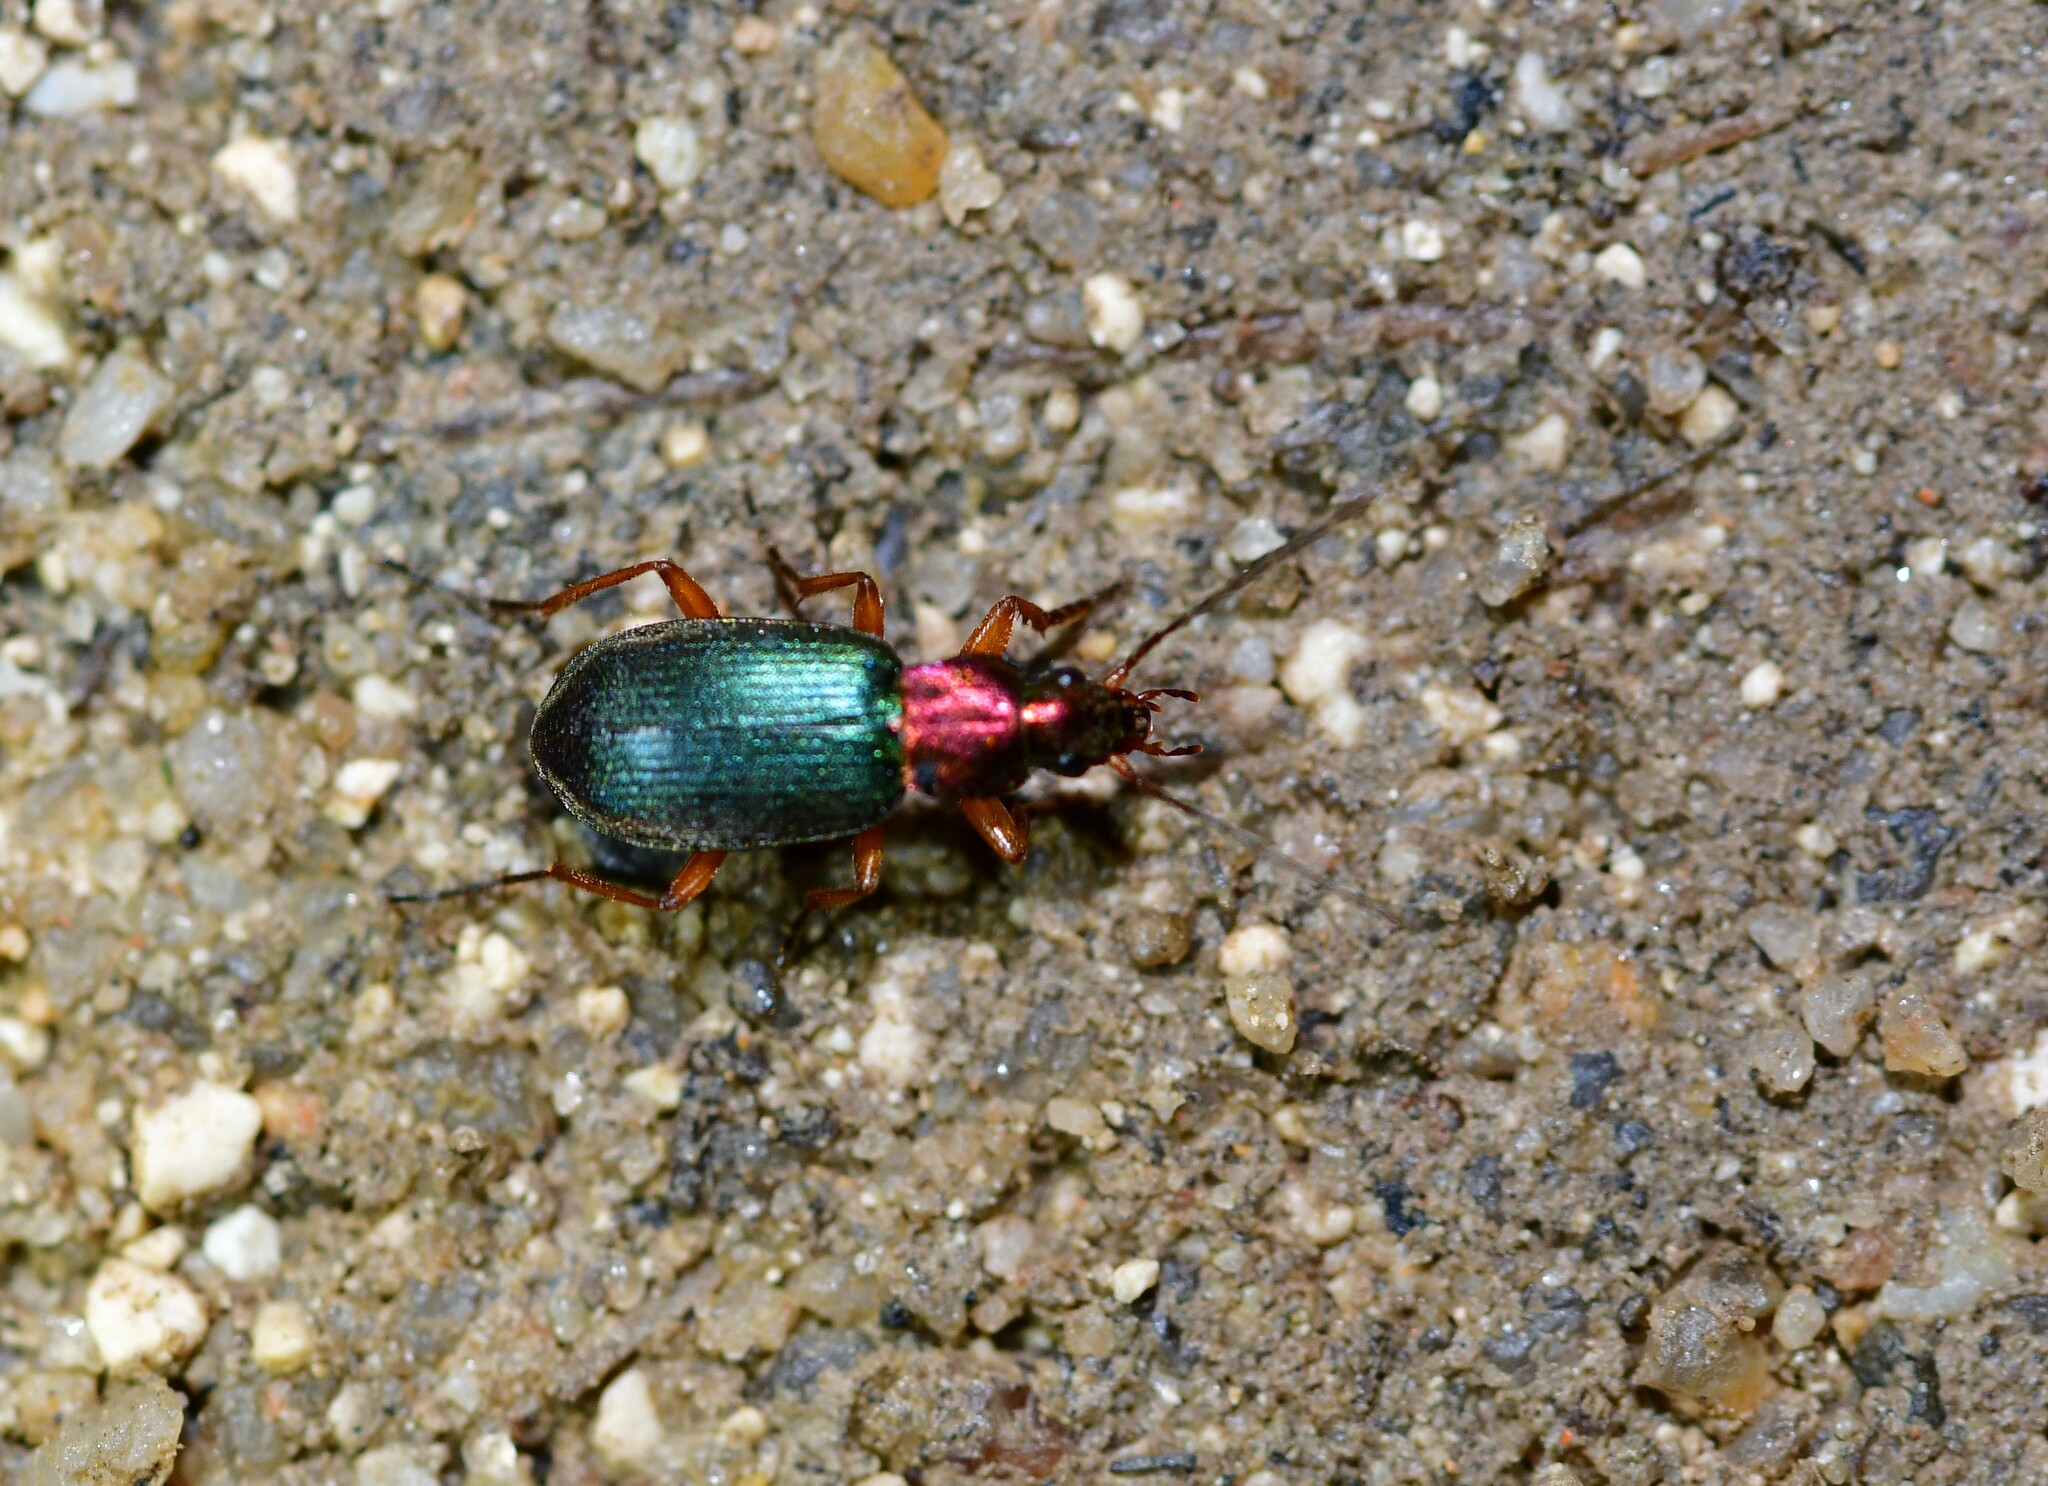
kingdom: Animalia
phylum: Arthropoda
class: Insecta
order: Coleoptera
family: Carabidae
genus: Chlaenius
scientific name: Chlaenius chrysocephalus
